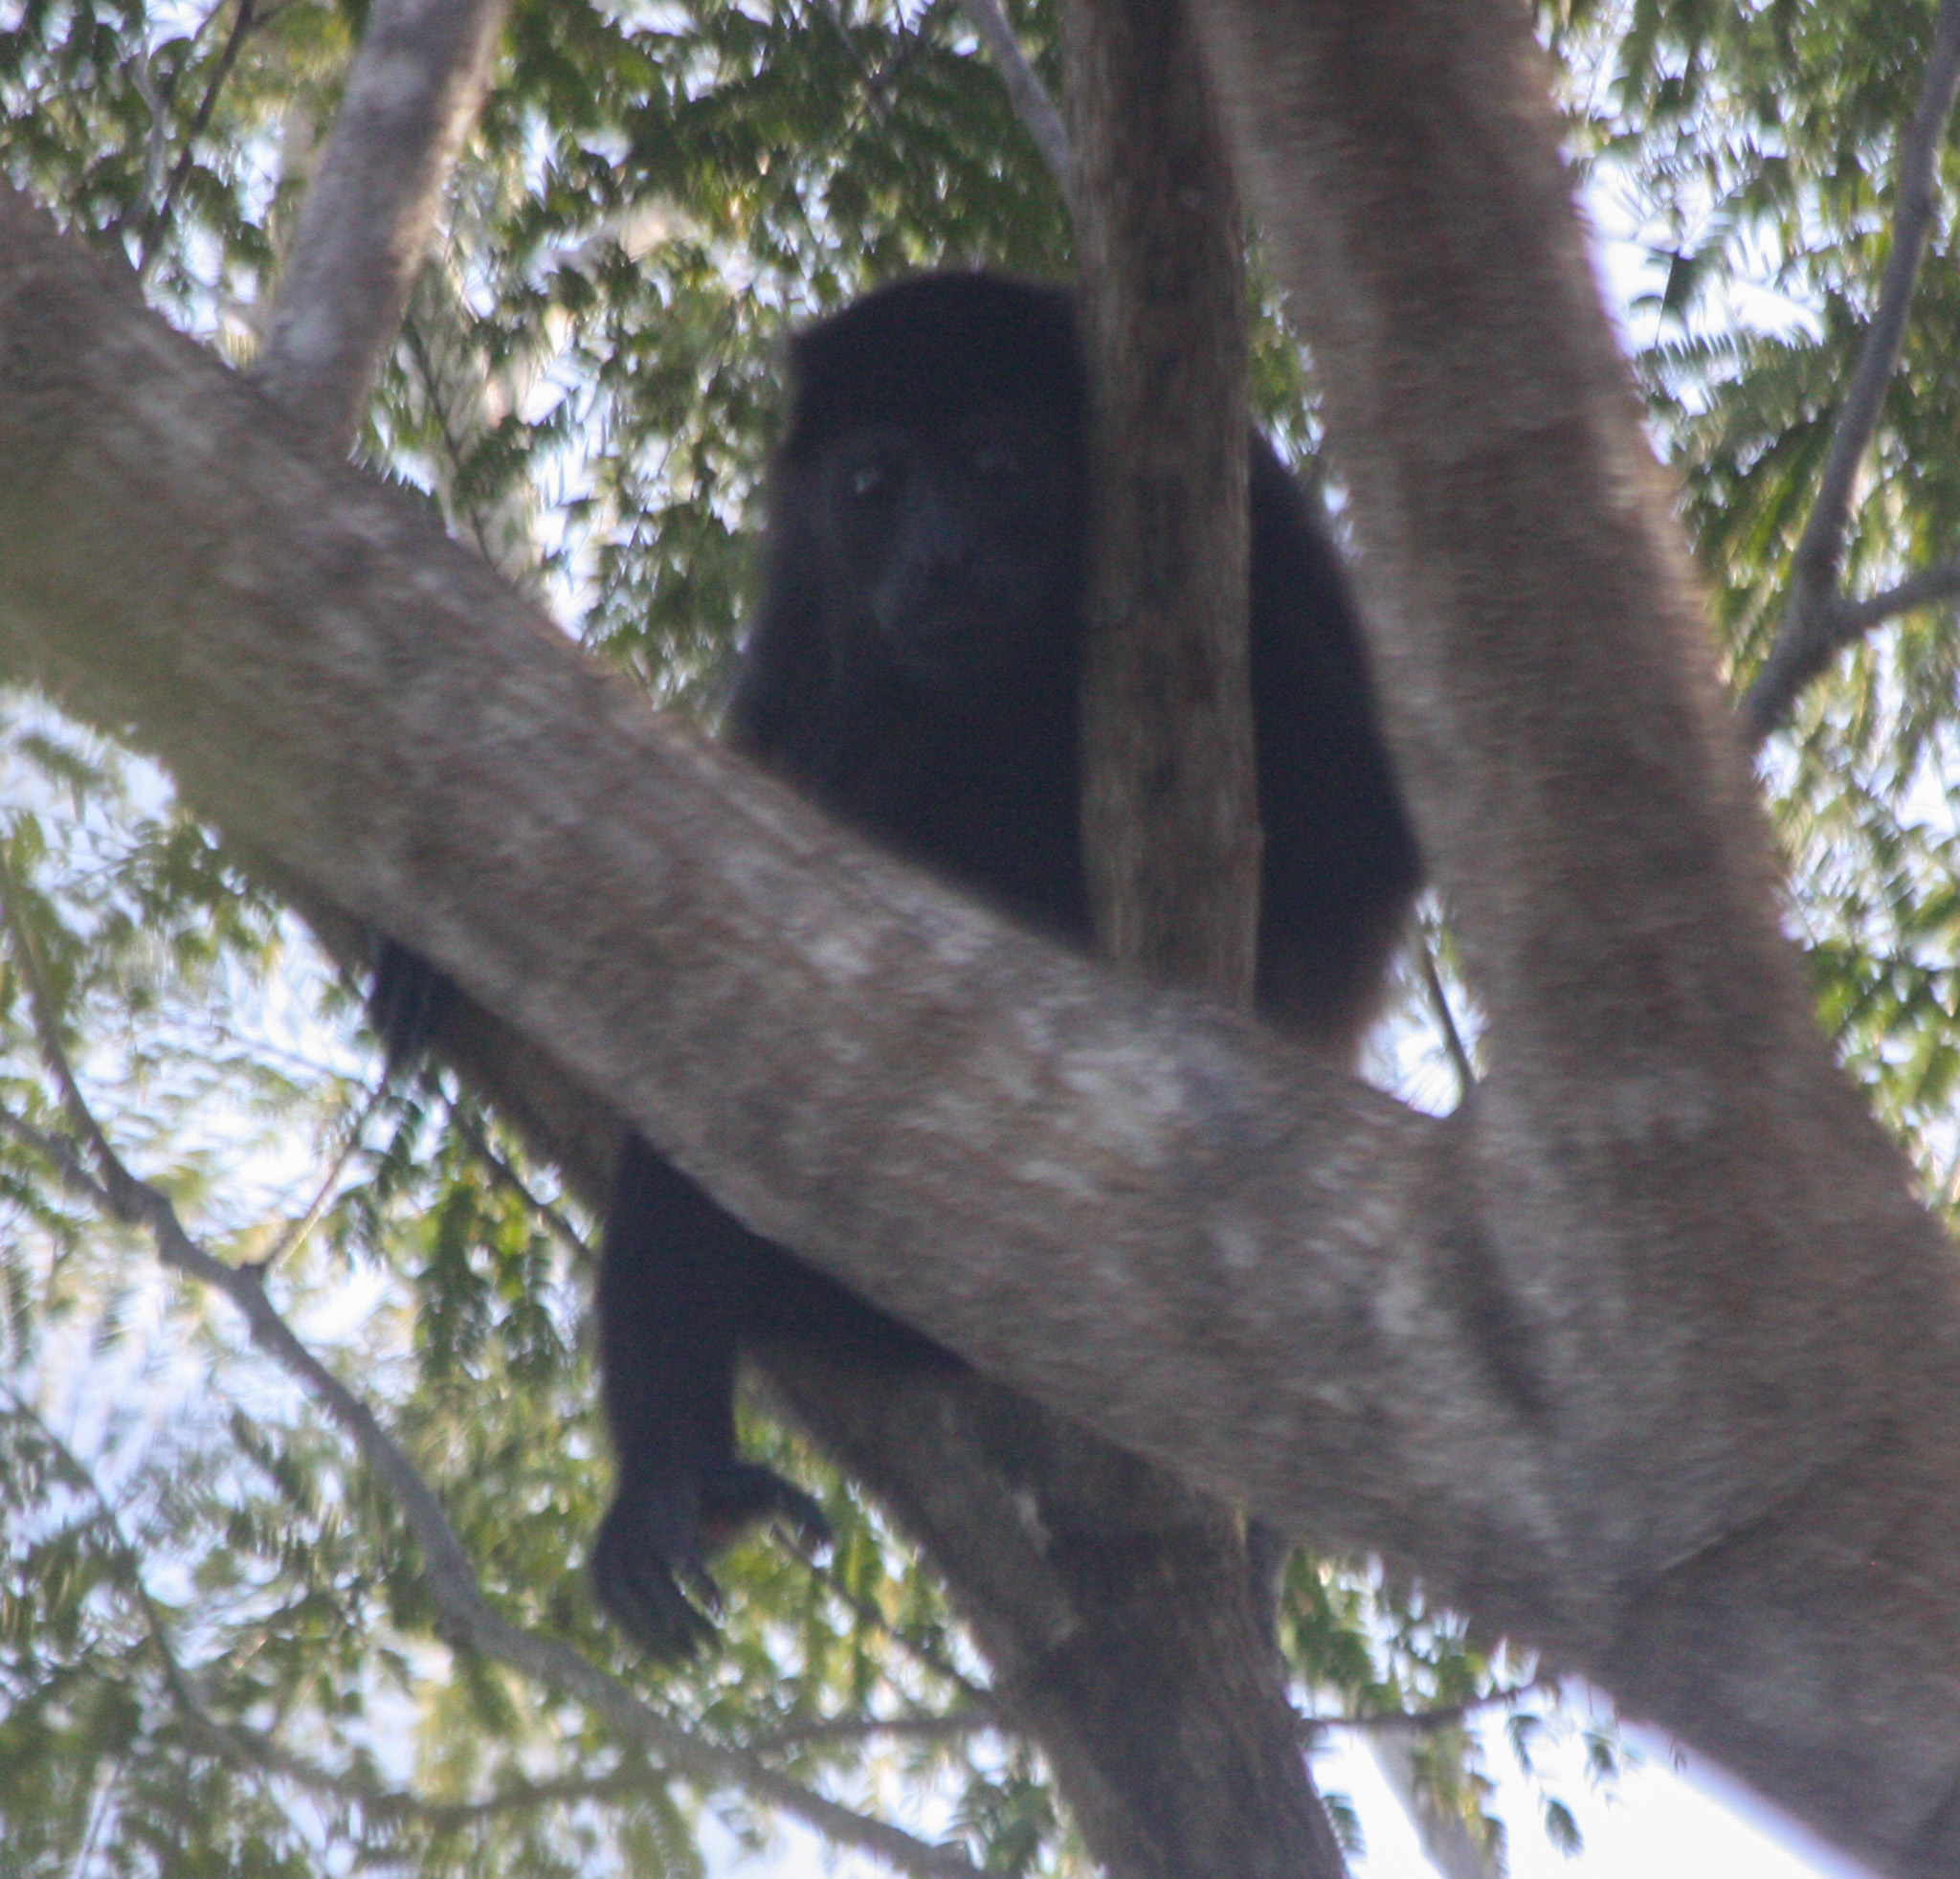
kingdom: Animalia
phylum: Chordata
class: Mammalia
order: Primates
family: Atelidae
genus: Alouatta
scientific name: Alouatta palliata
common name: Mantled howler
